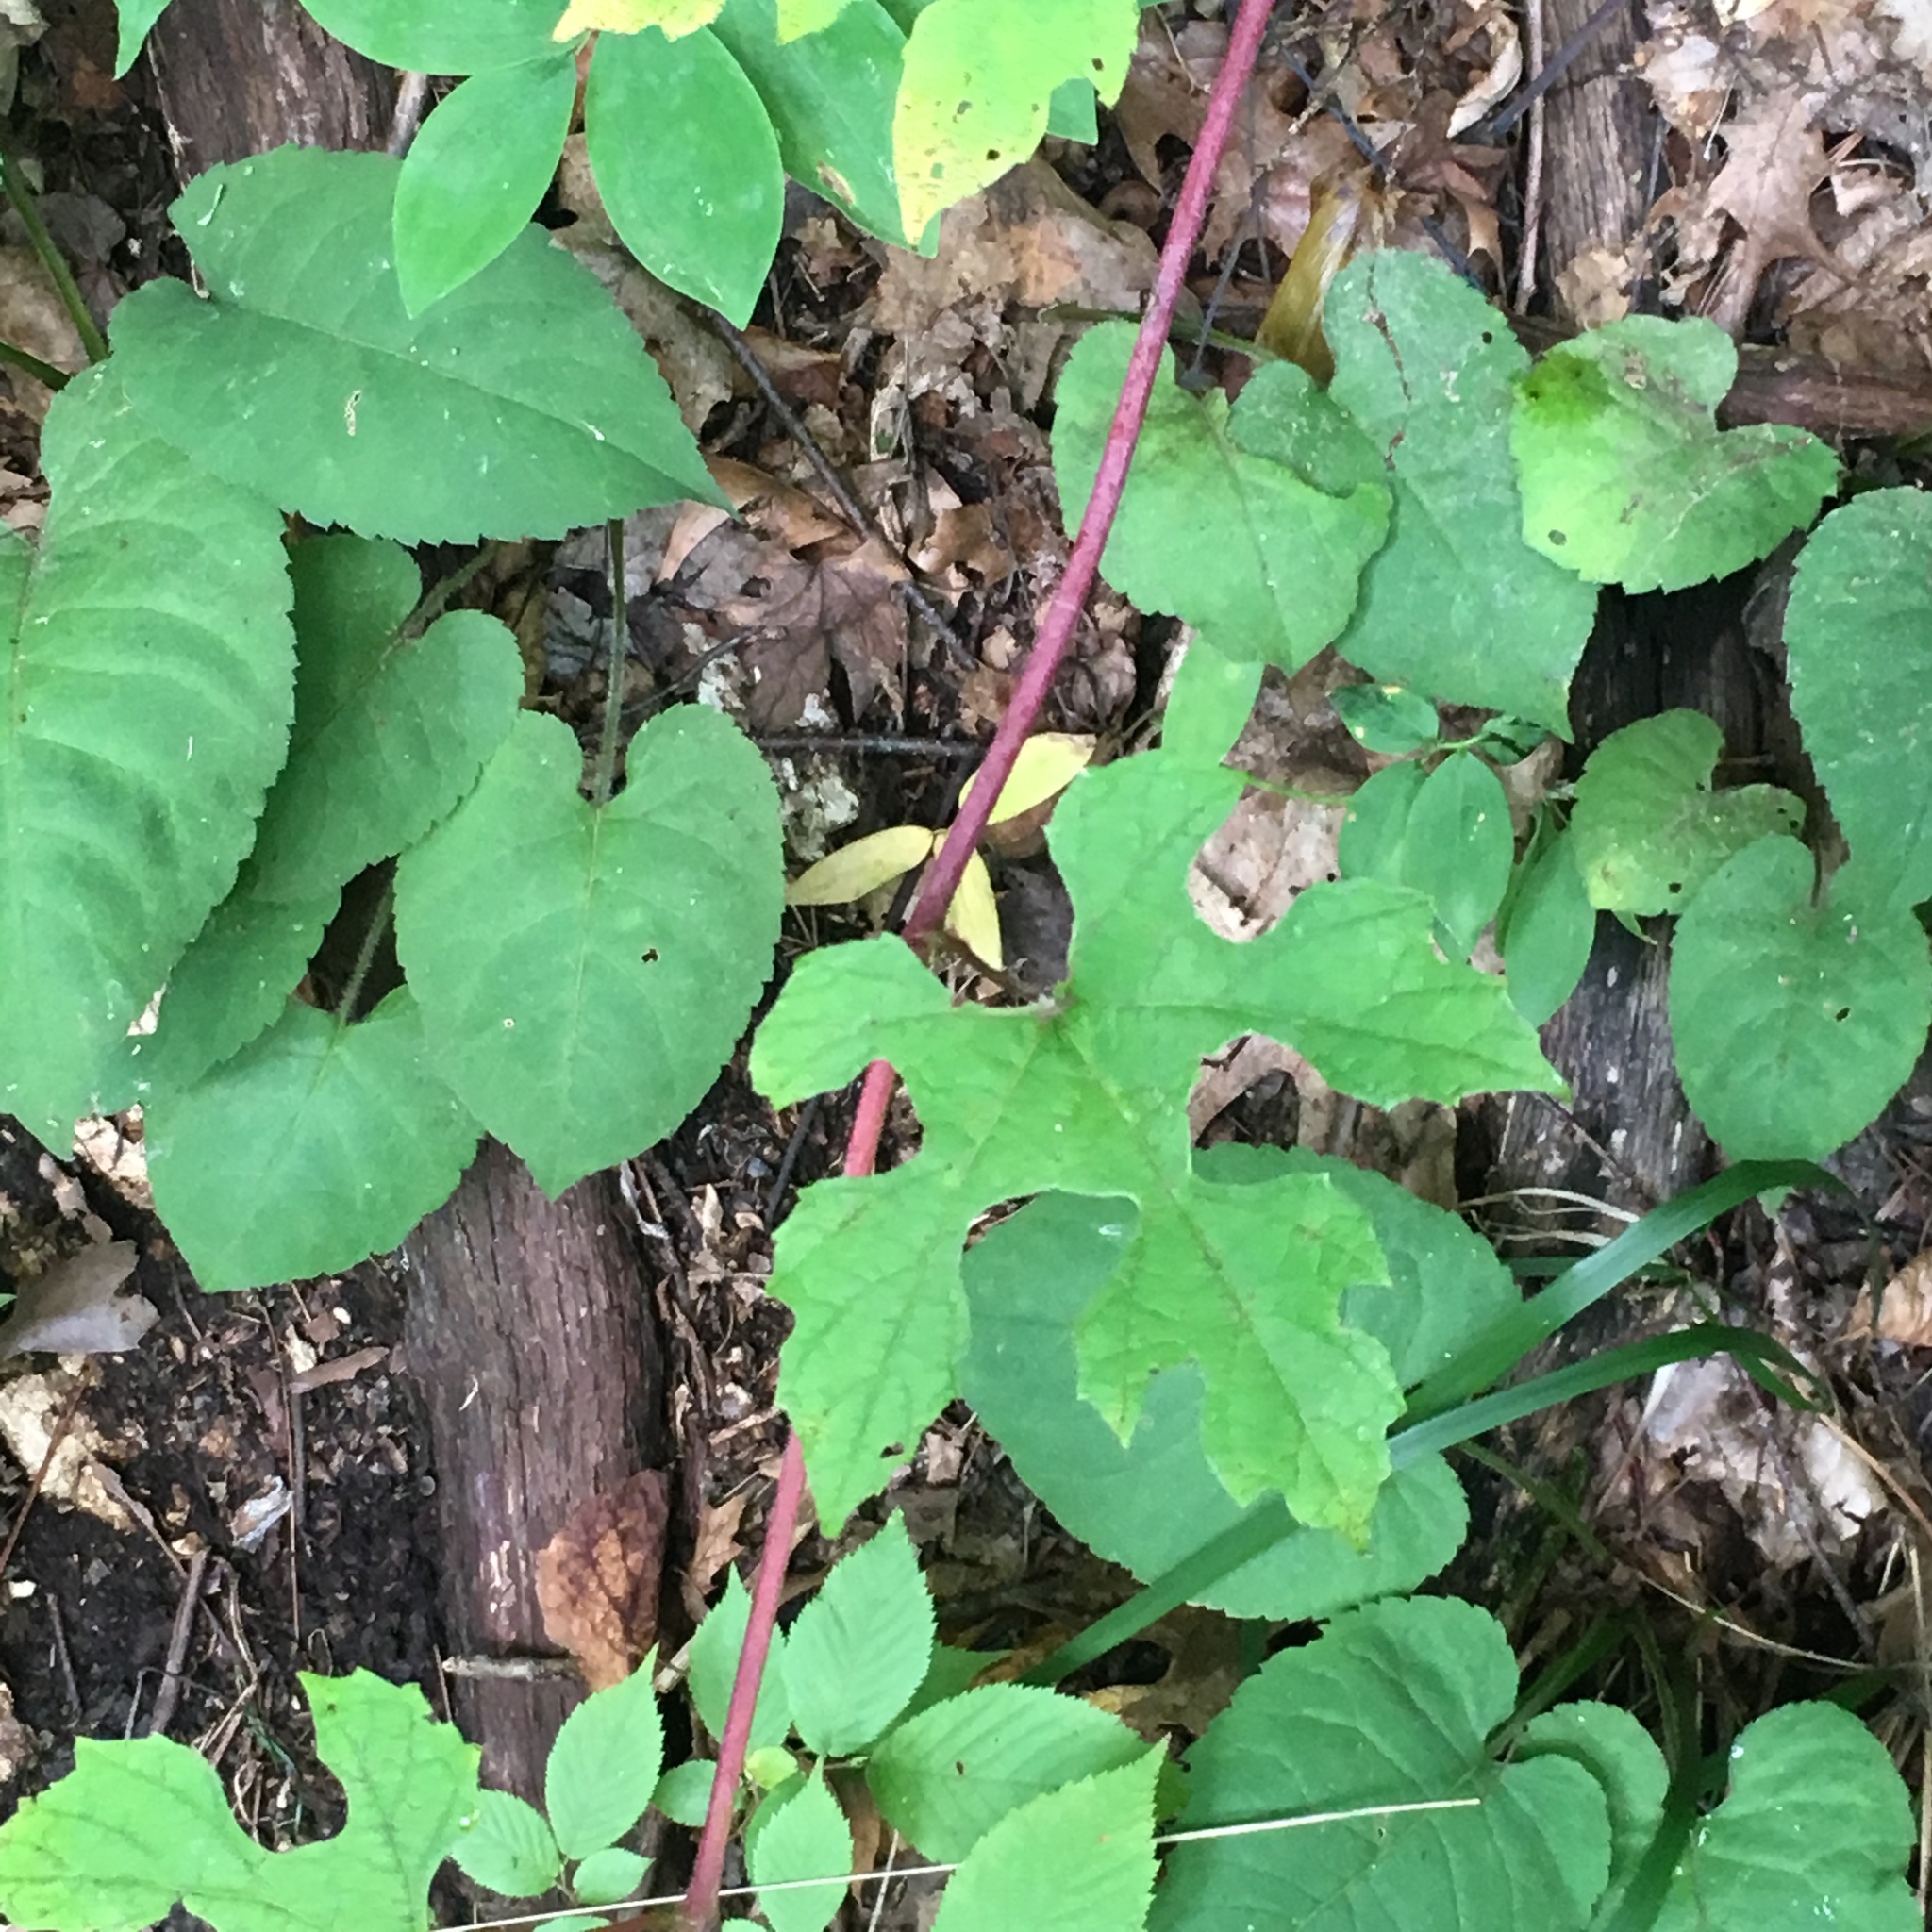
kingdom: Plantae
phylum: Tracheophyta
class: Magnoliopsida
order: Vitales
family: Vitaceae
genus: Vitis
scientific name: Vitis aestivalis
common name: Pigeon grape
